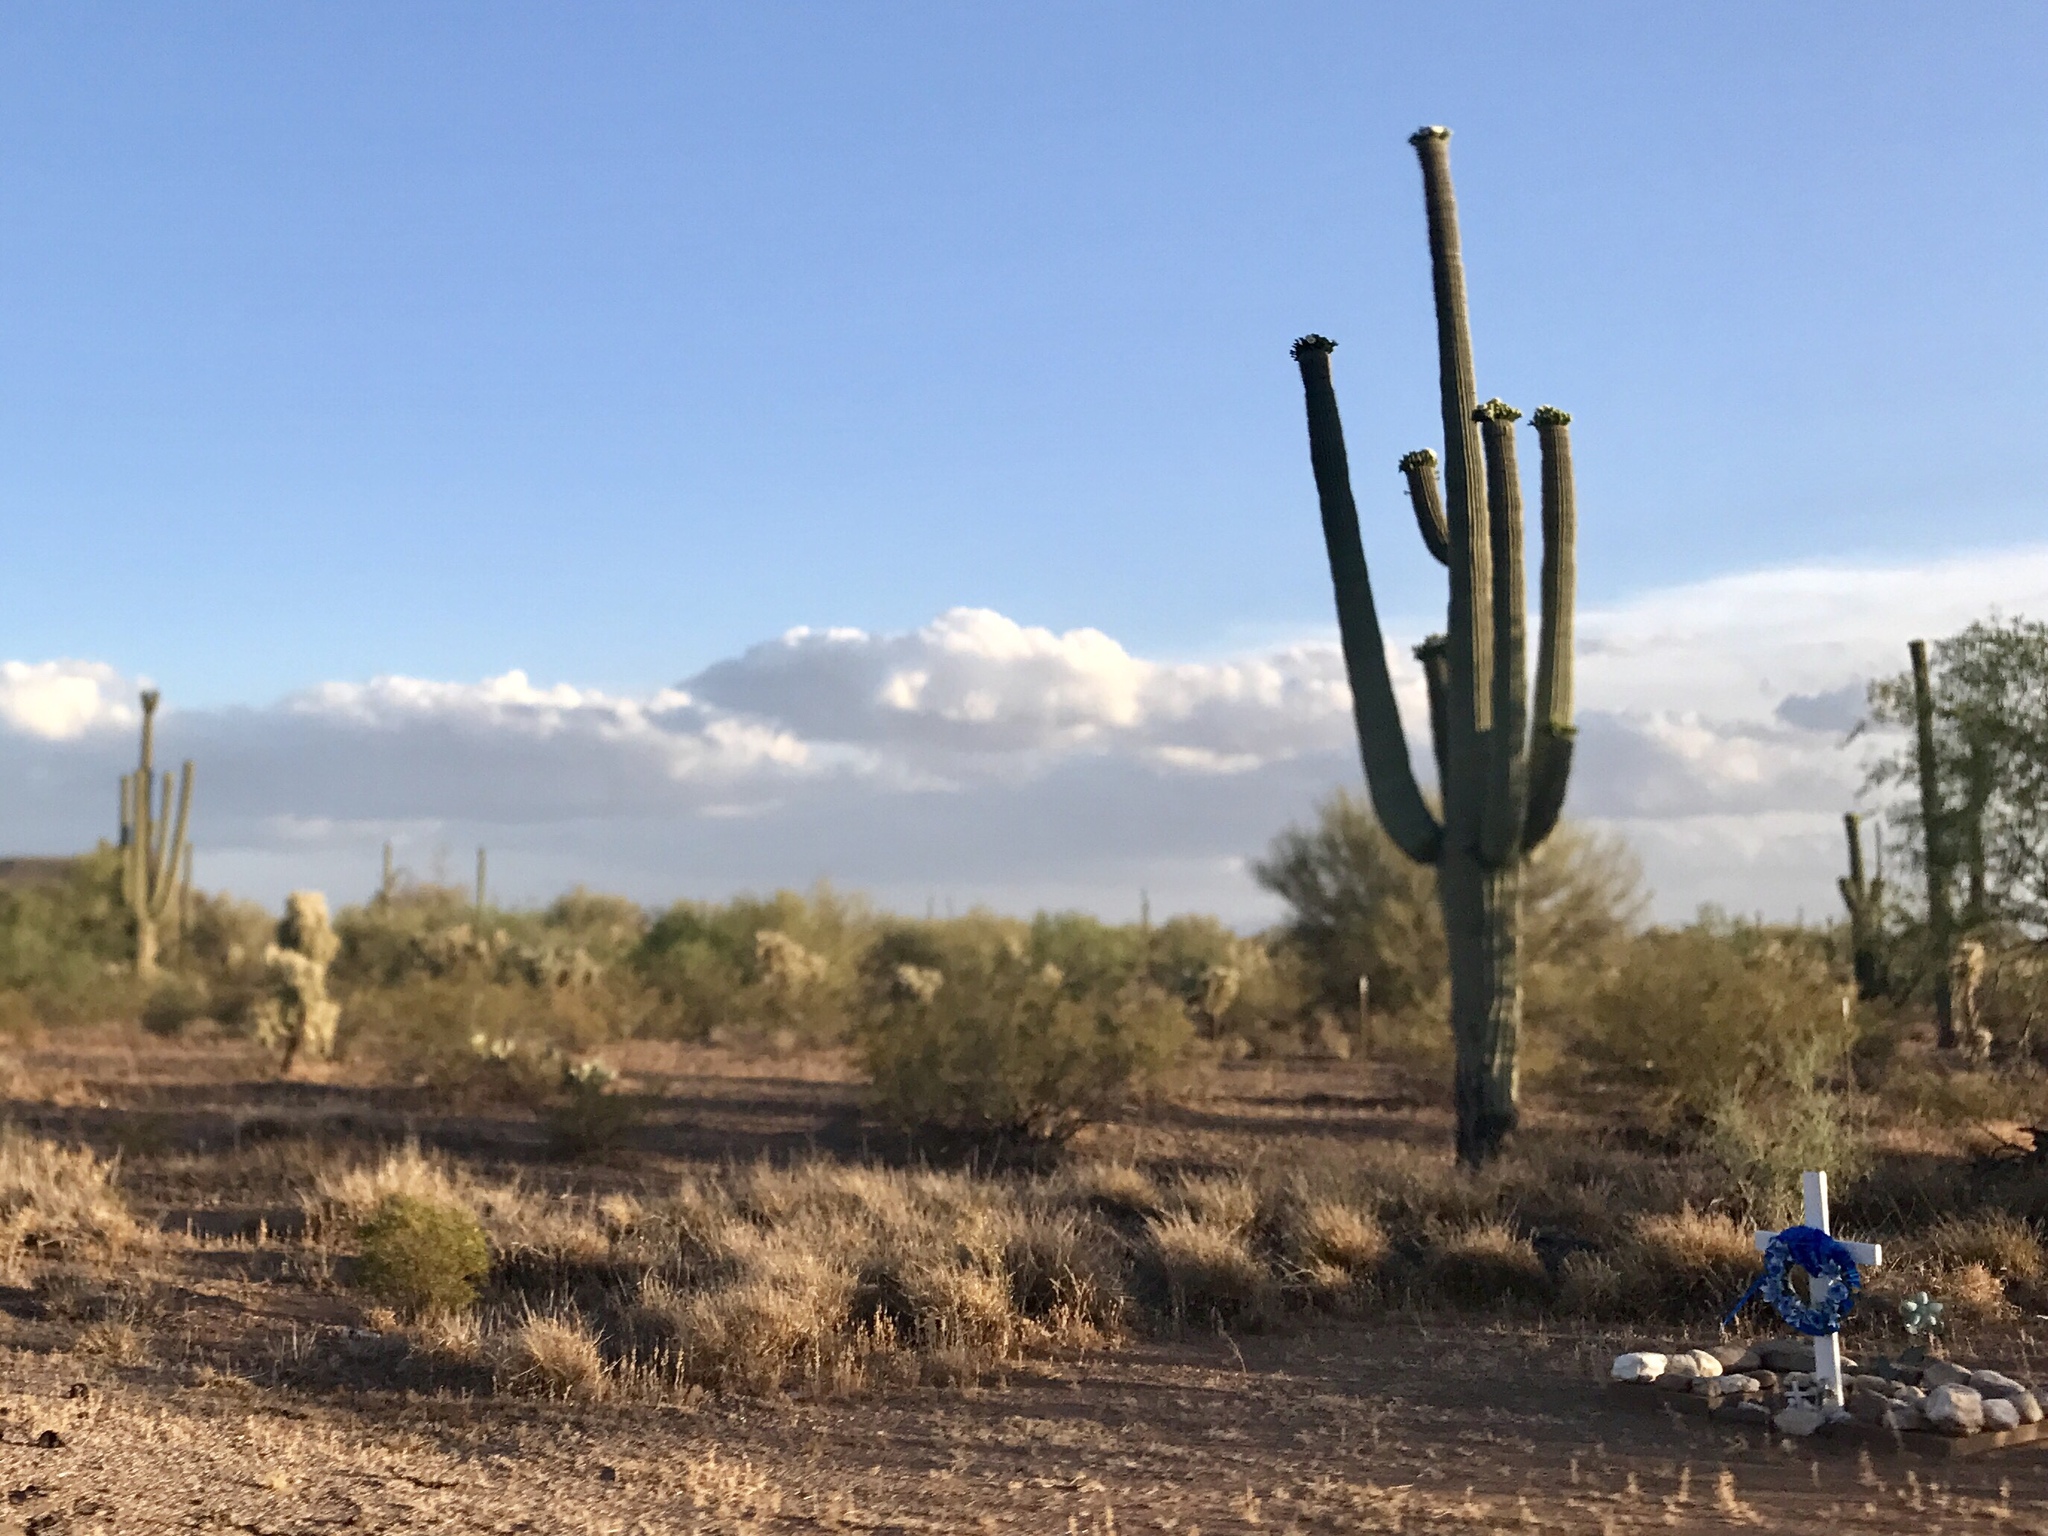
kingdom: Plantae
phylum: Tracheophyta
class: Magnoliopsida
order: Caryophyllales
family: Cactaceae
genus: Carnegiea
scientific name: Carnegiea gigantea
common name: Saguaro
